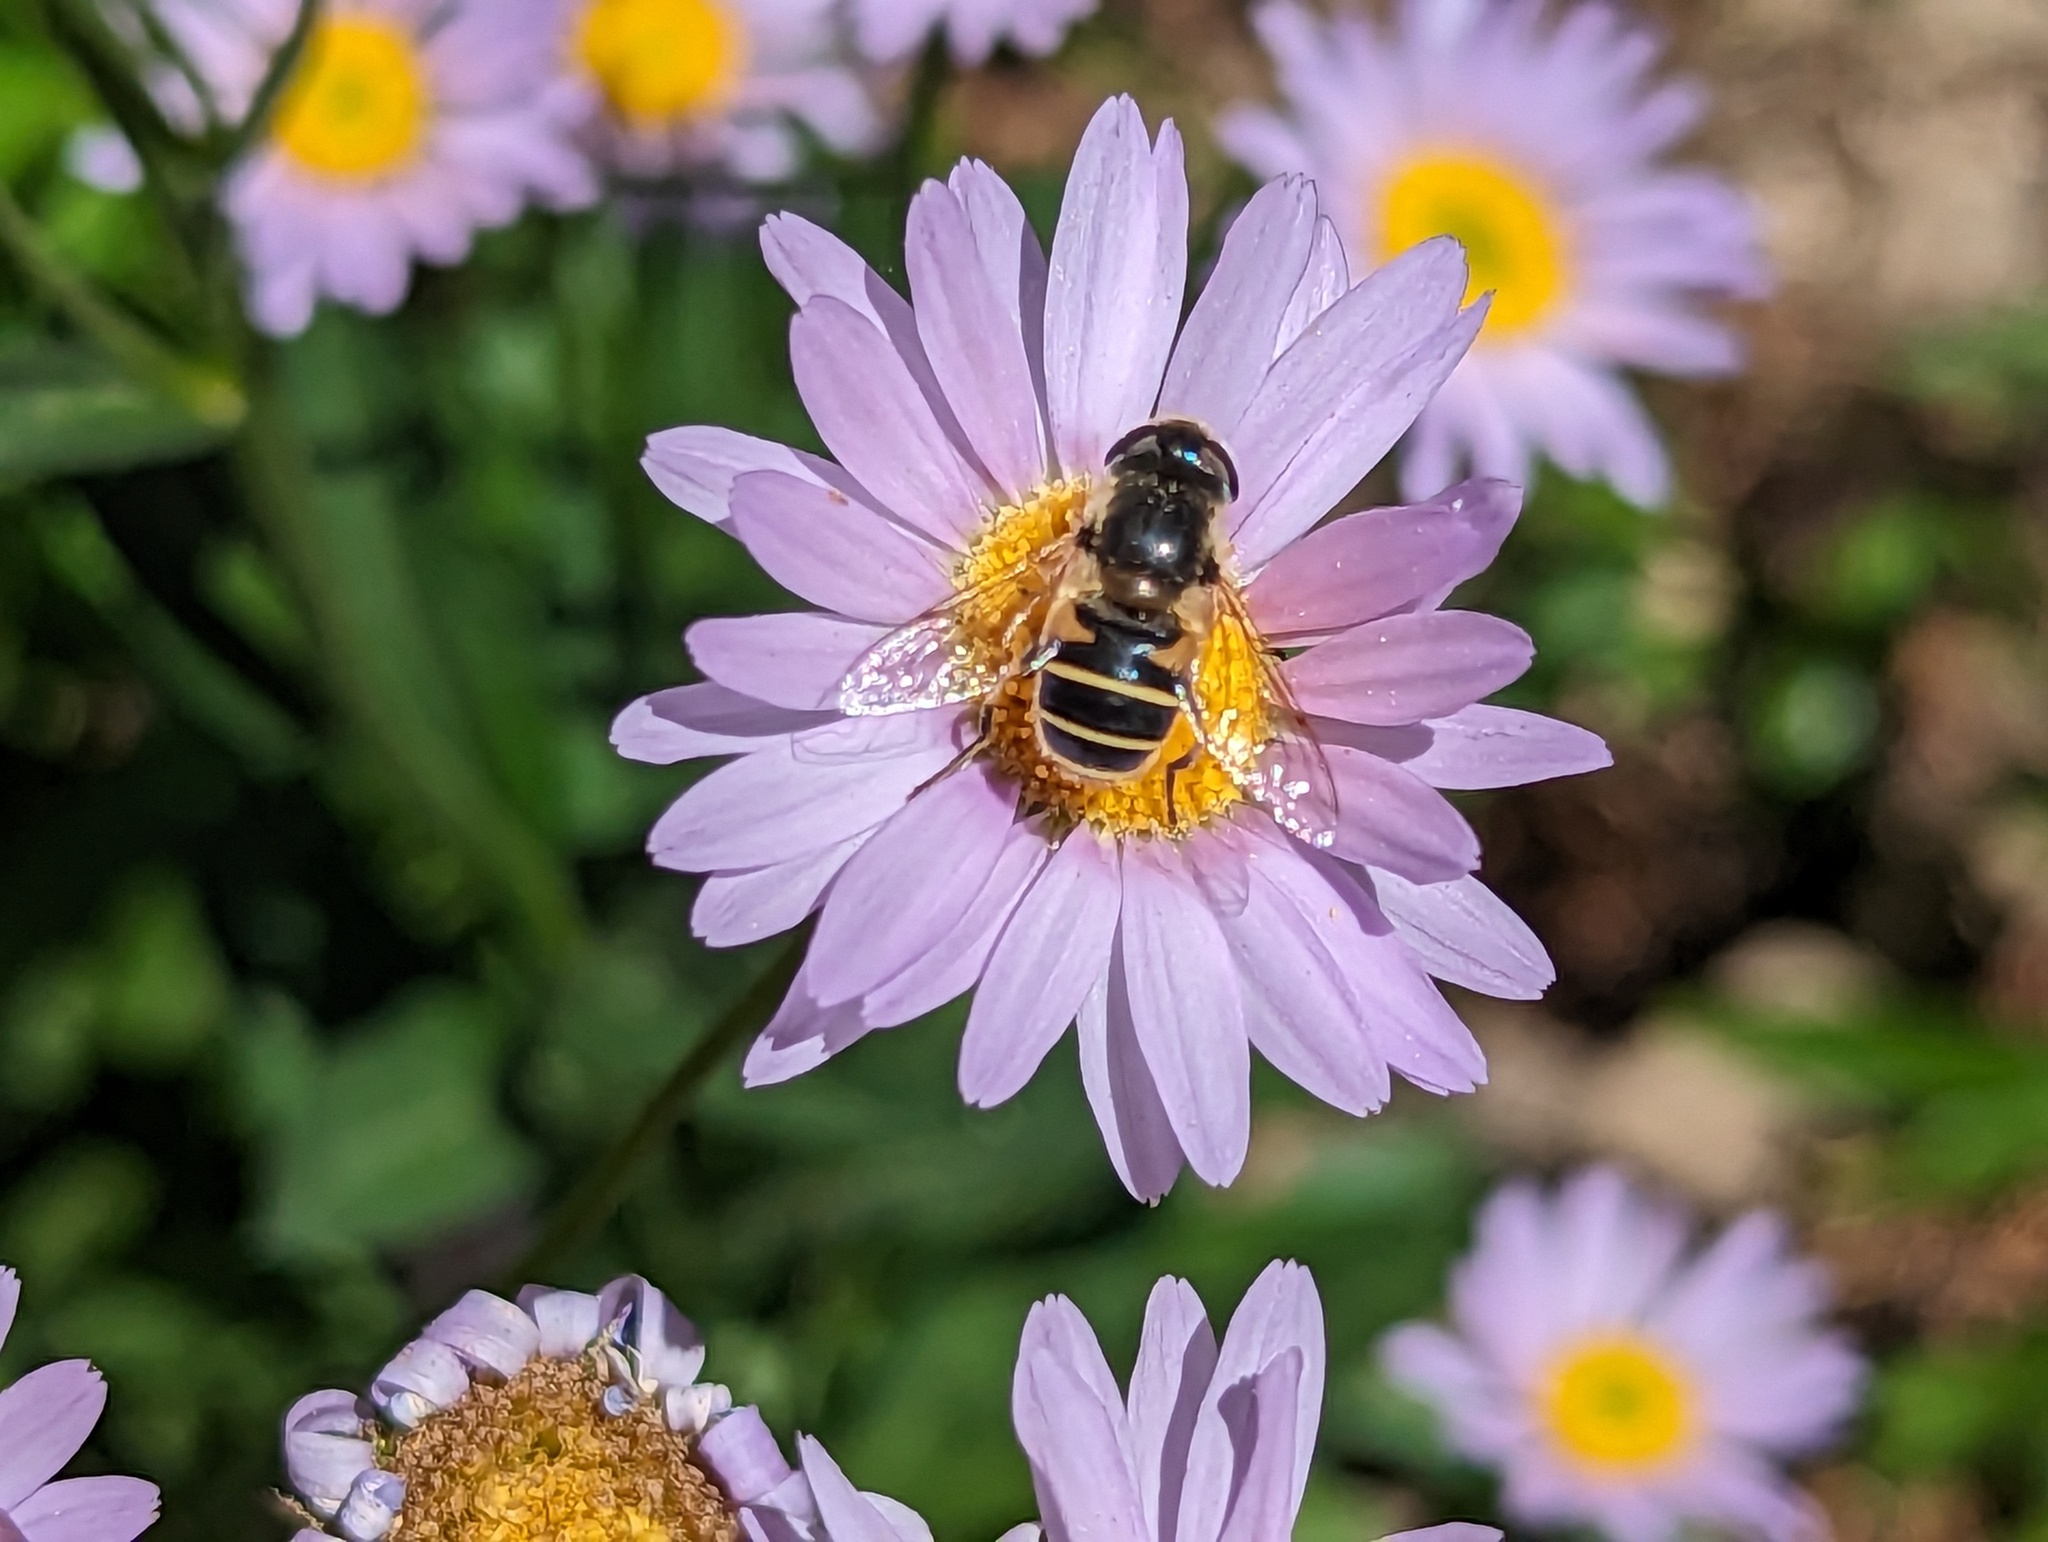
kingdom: Animalia
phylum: Arthropoda
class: Insecta
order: Diptera
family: Syrphidae
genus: Eristalis
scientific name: Eristalis hirta
